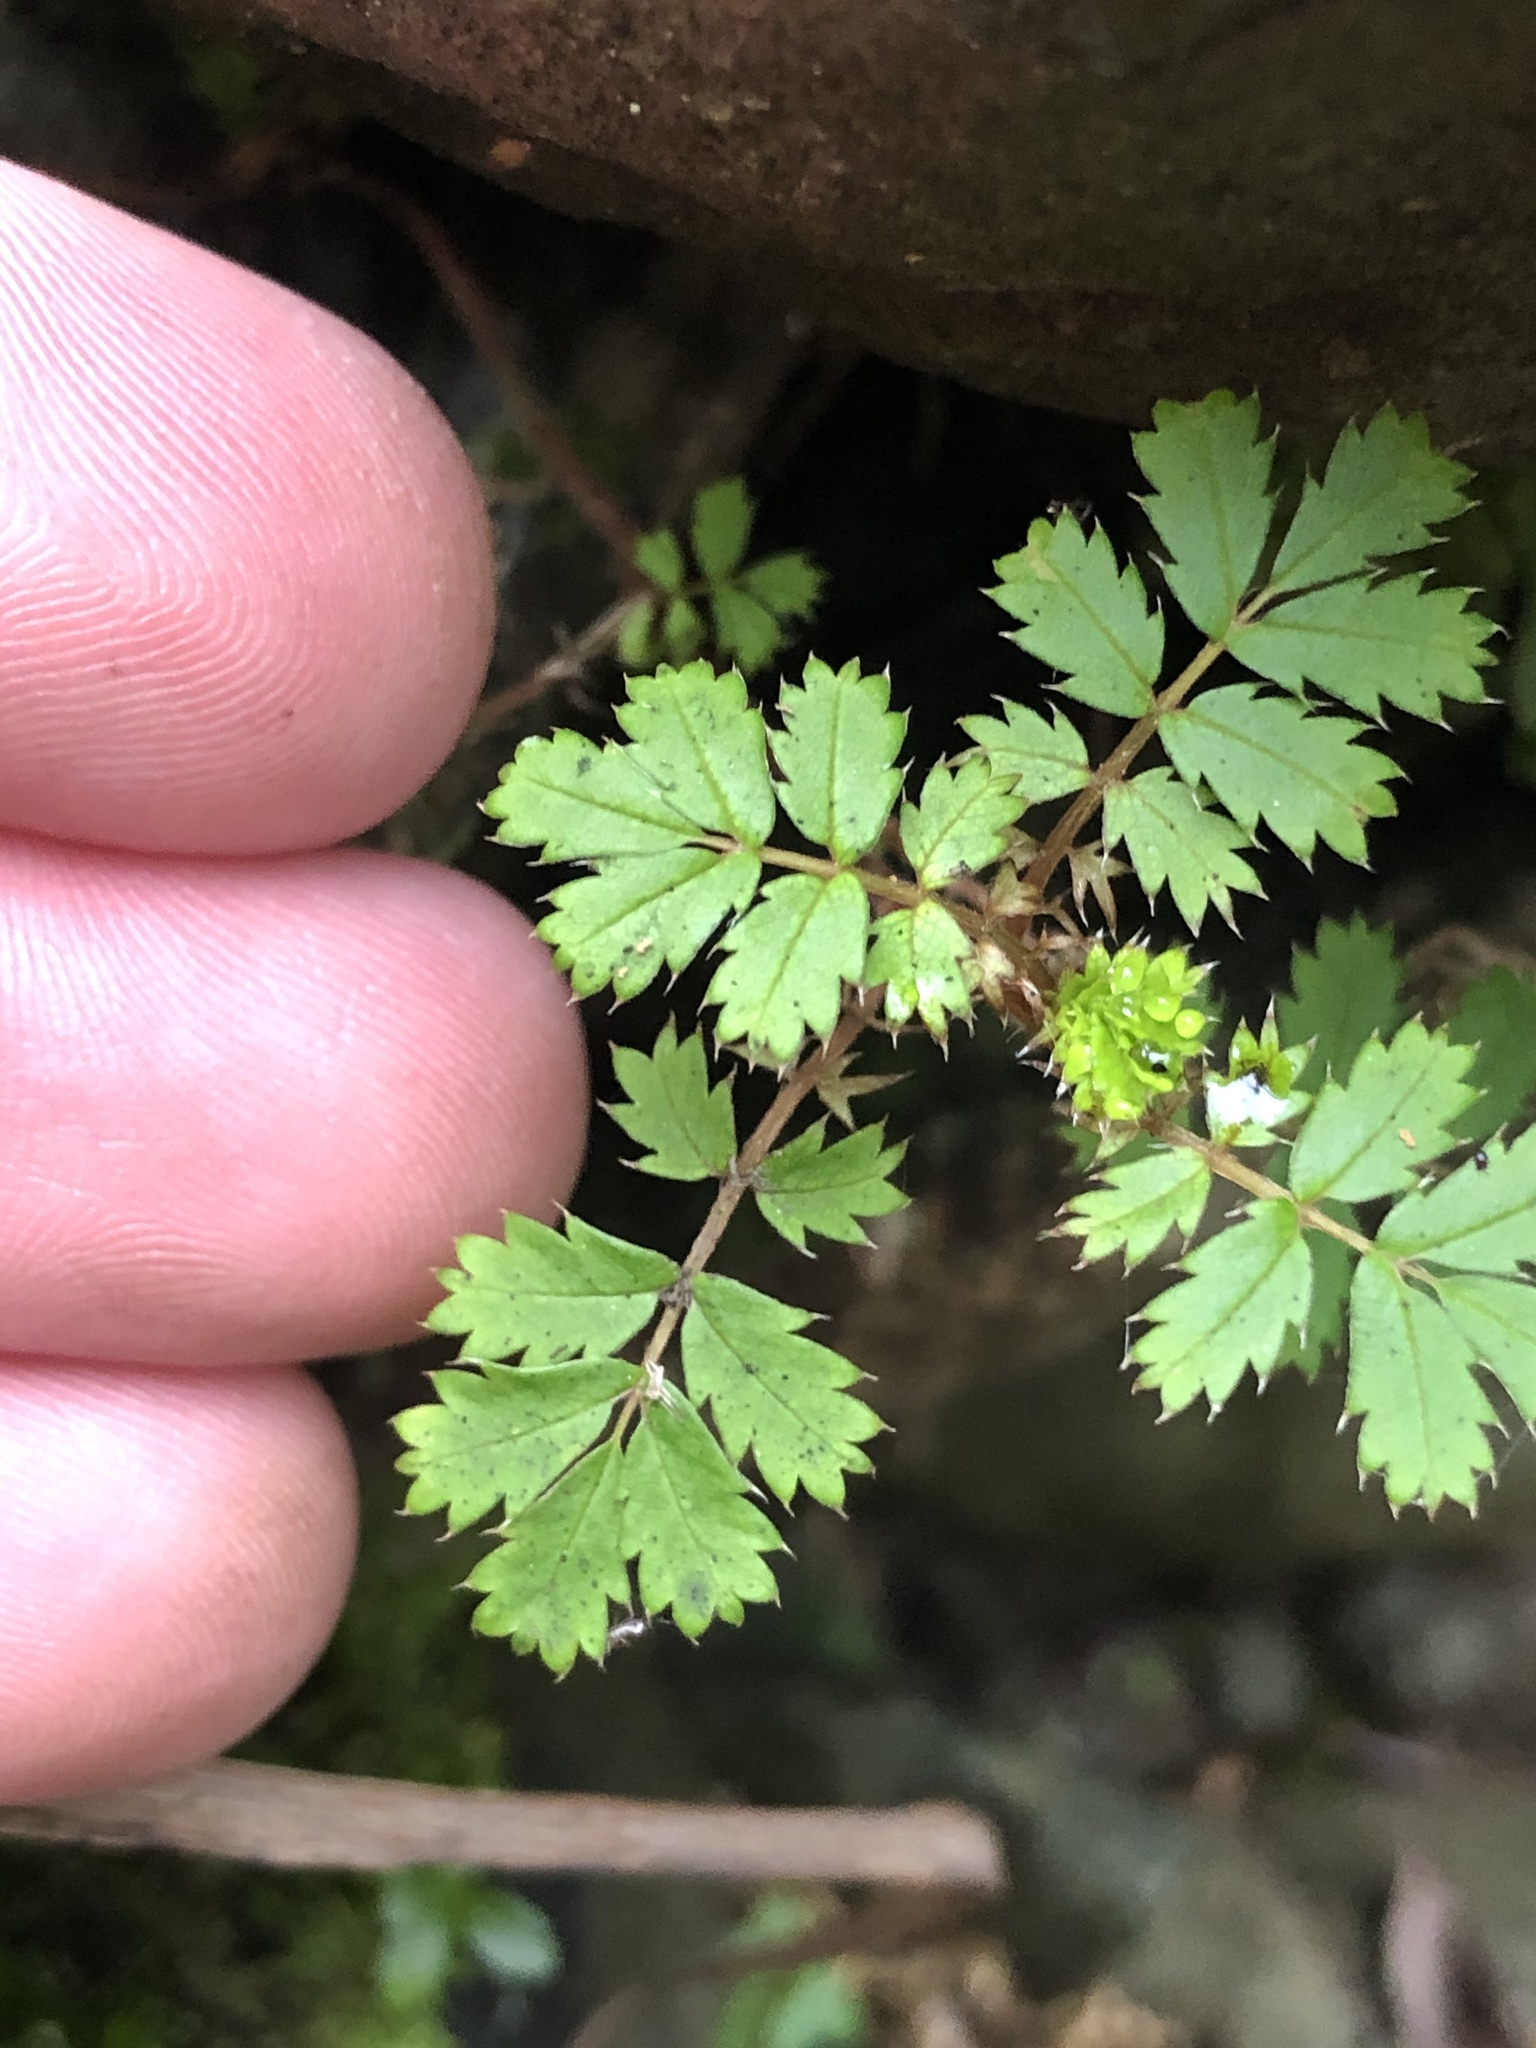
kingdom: Plantae
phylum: Tracheophyta
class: Magnoliopsida
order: Rosales
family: Rosaceae
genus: Acaena
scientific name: Acaena anserinifolia
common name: Bronze pirri-pirri-bur
